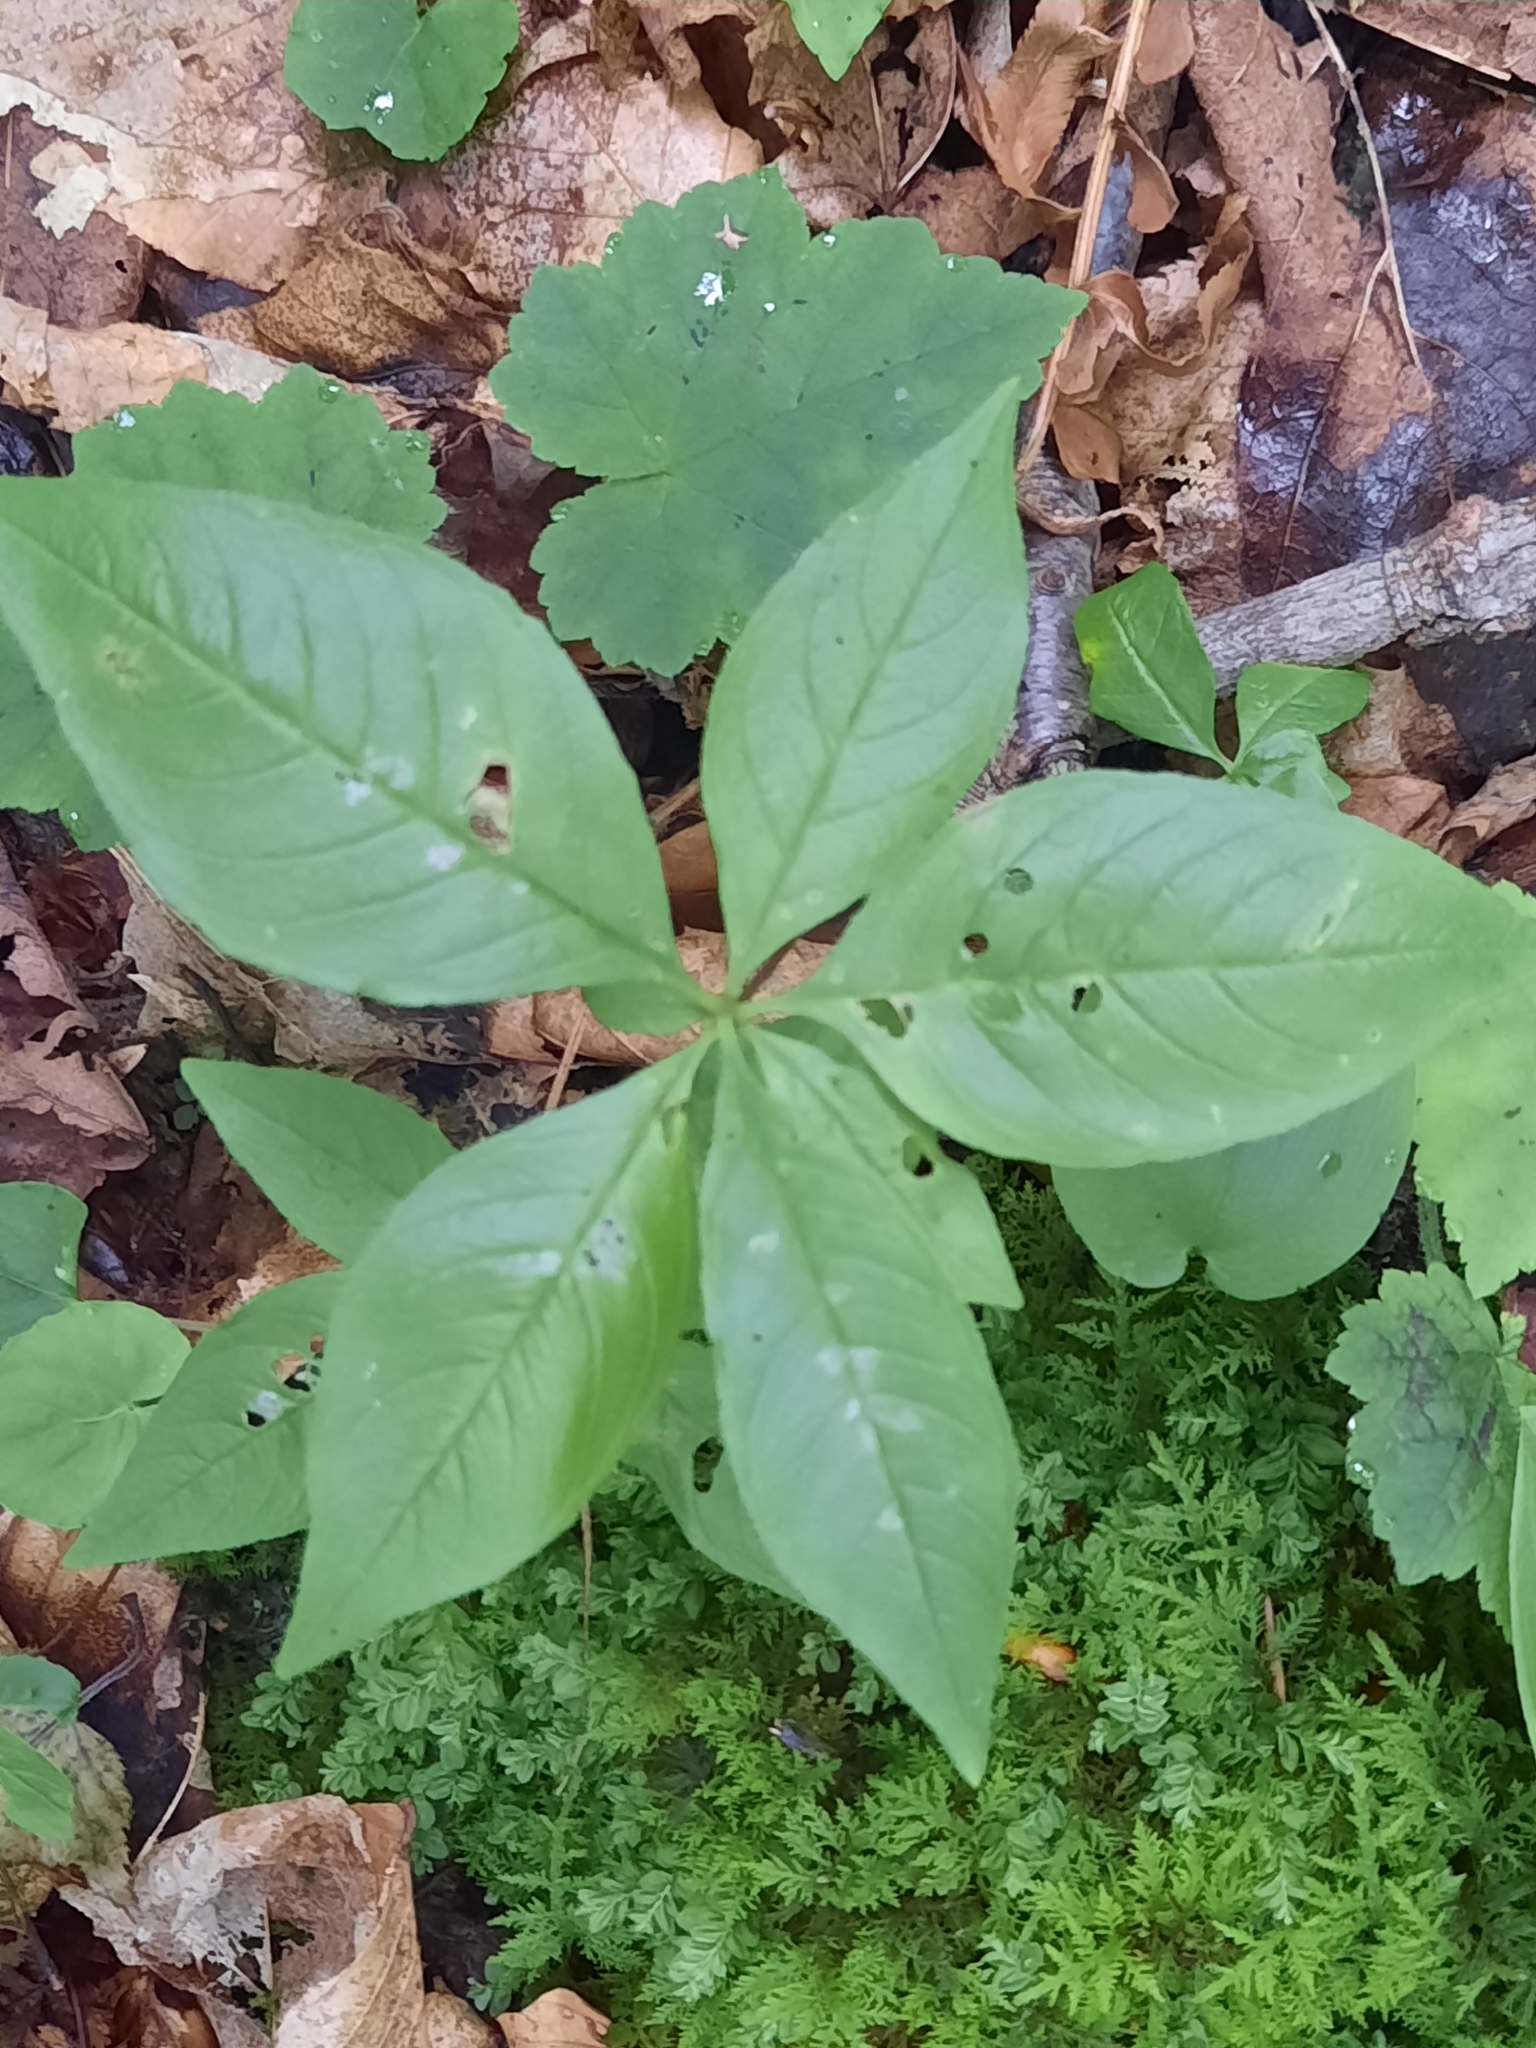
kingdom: Plantae
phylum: Tracheophyta
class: Magnoliopsida
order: Ericales
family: Primulaceae
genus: Lysimachia
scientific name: Lysimachia borealis
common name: American starflower
